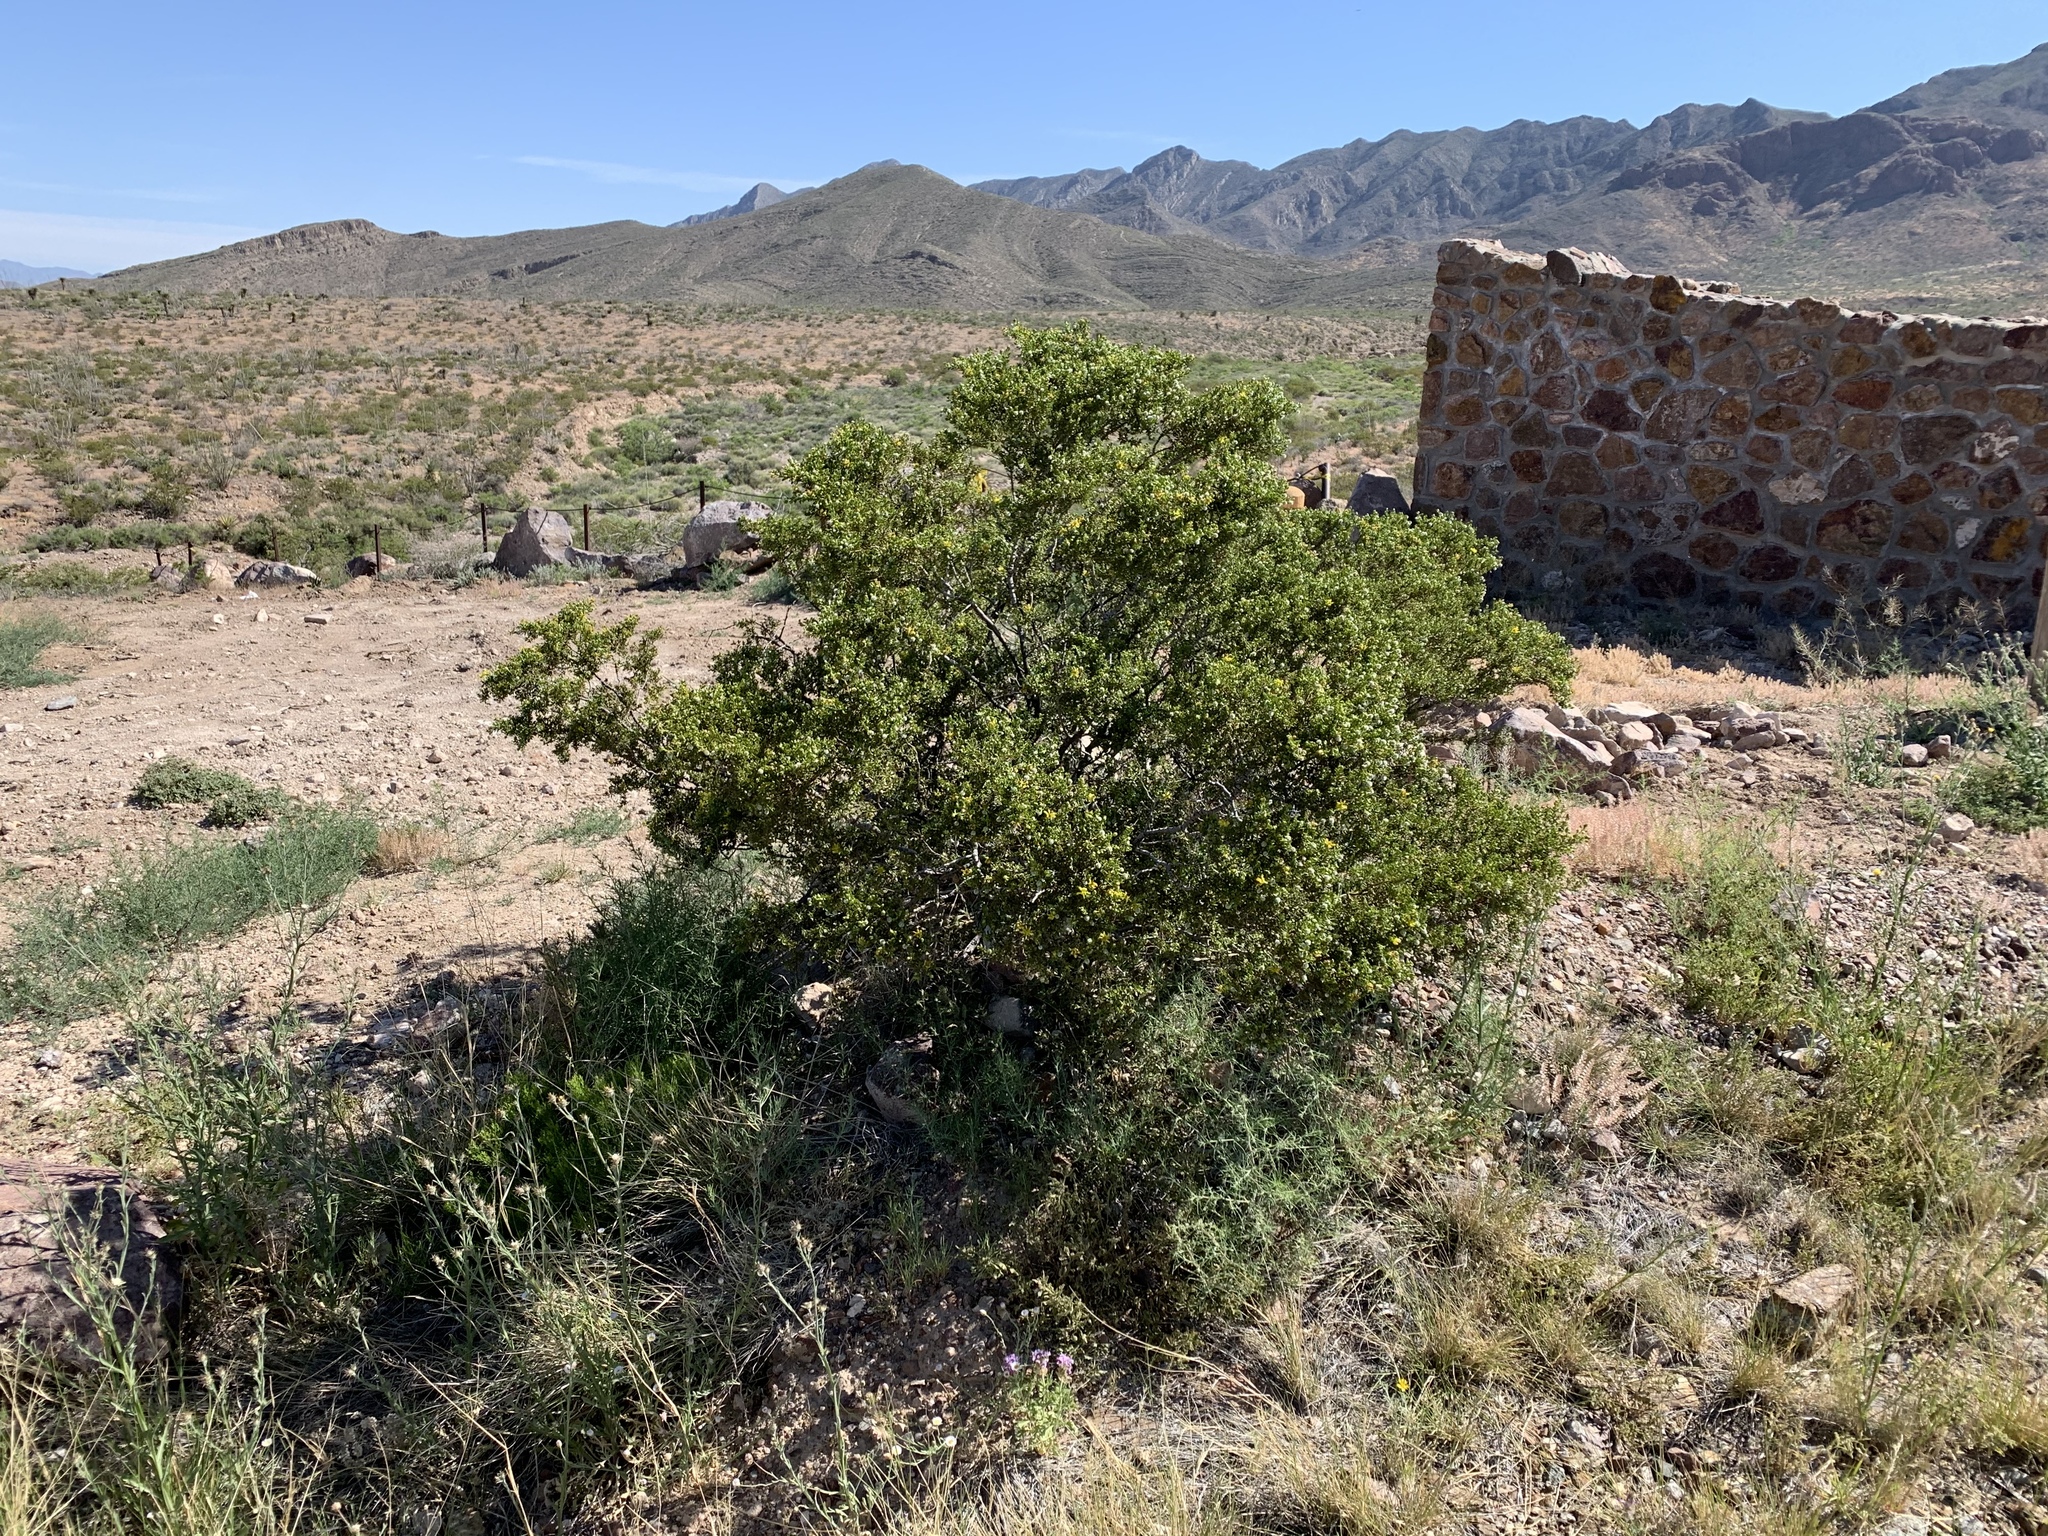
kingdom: Plantae
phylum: Tracheophyta
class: Magnoliopsida
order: Zygophyllales
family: Zygophyllaceae
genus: Larrea
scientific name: Larrea tridentata
